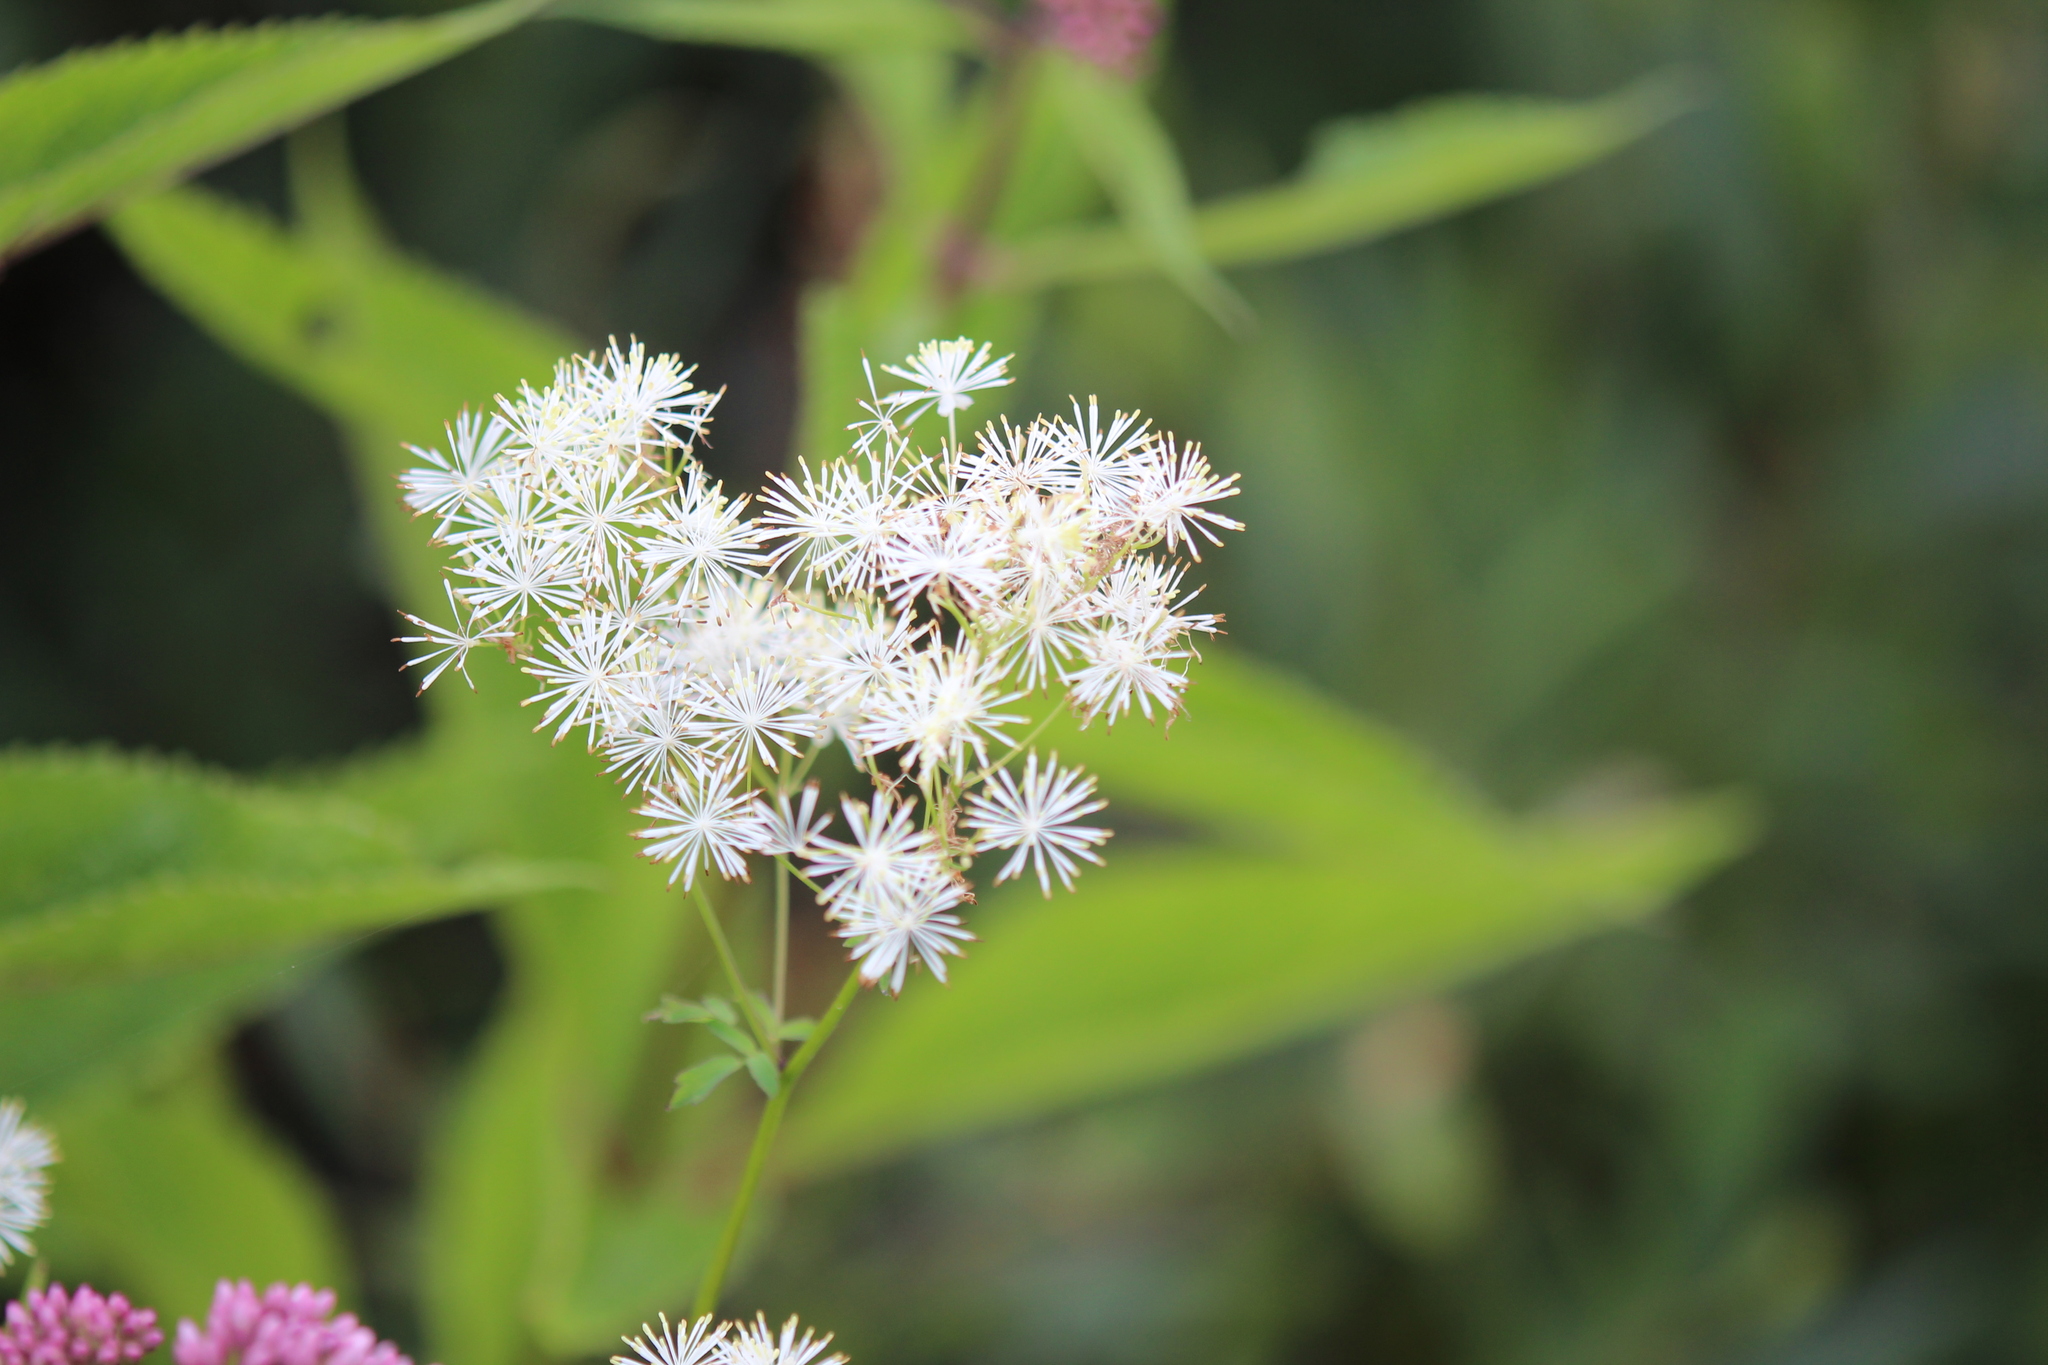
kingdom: Plantae
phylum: Tracheophyta
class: Magnoliopsida
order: Ranunculales
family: Ranunculaceae
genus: Thalictrum
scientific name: Thalictrum pubescens
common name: King-of-the-meadow
